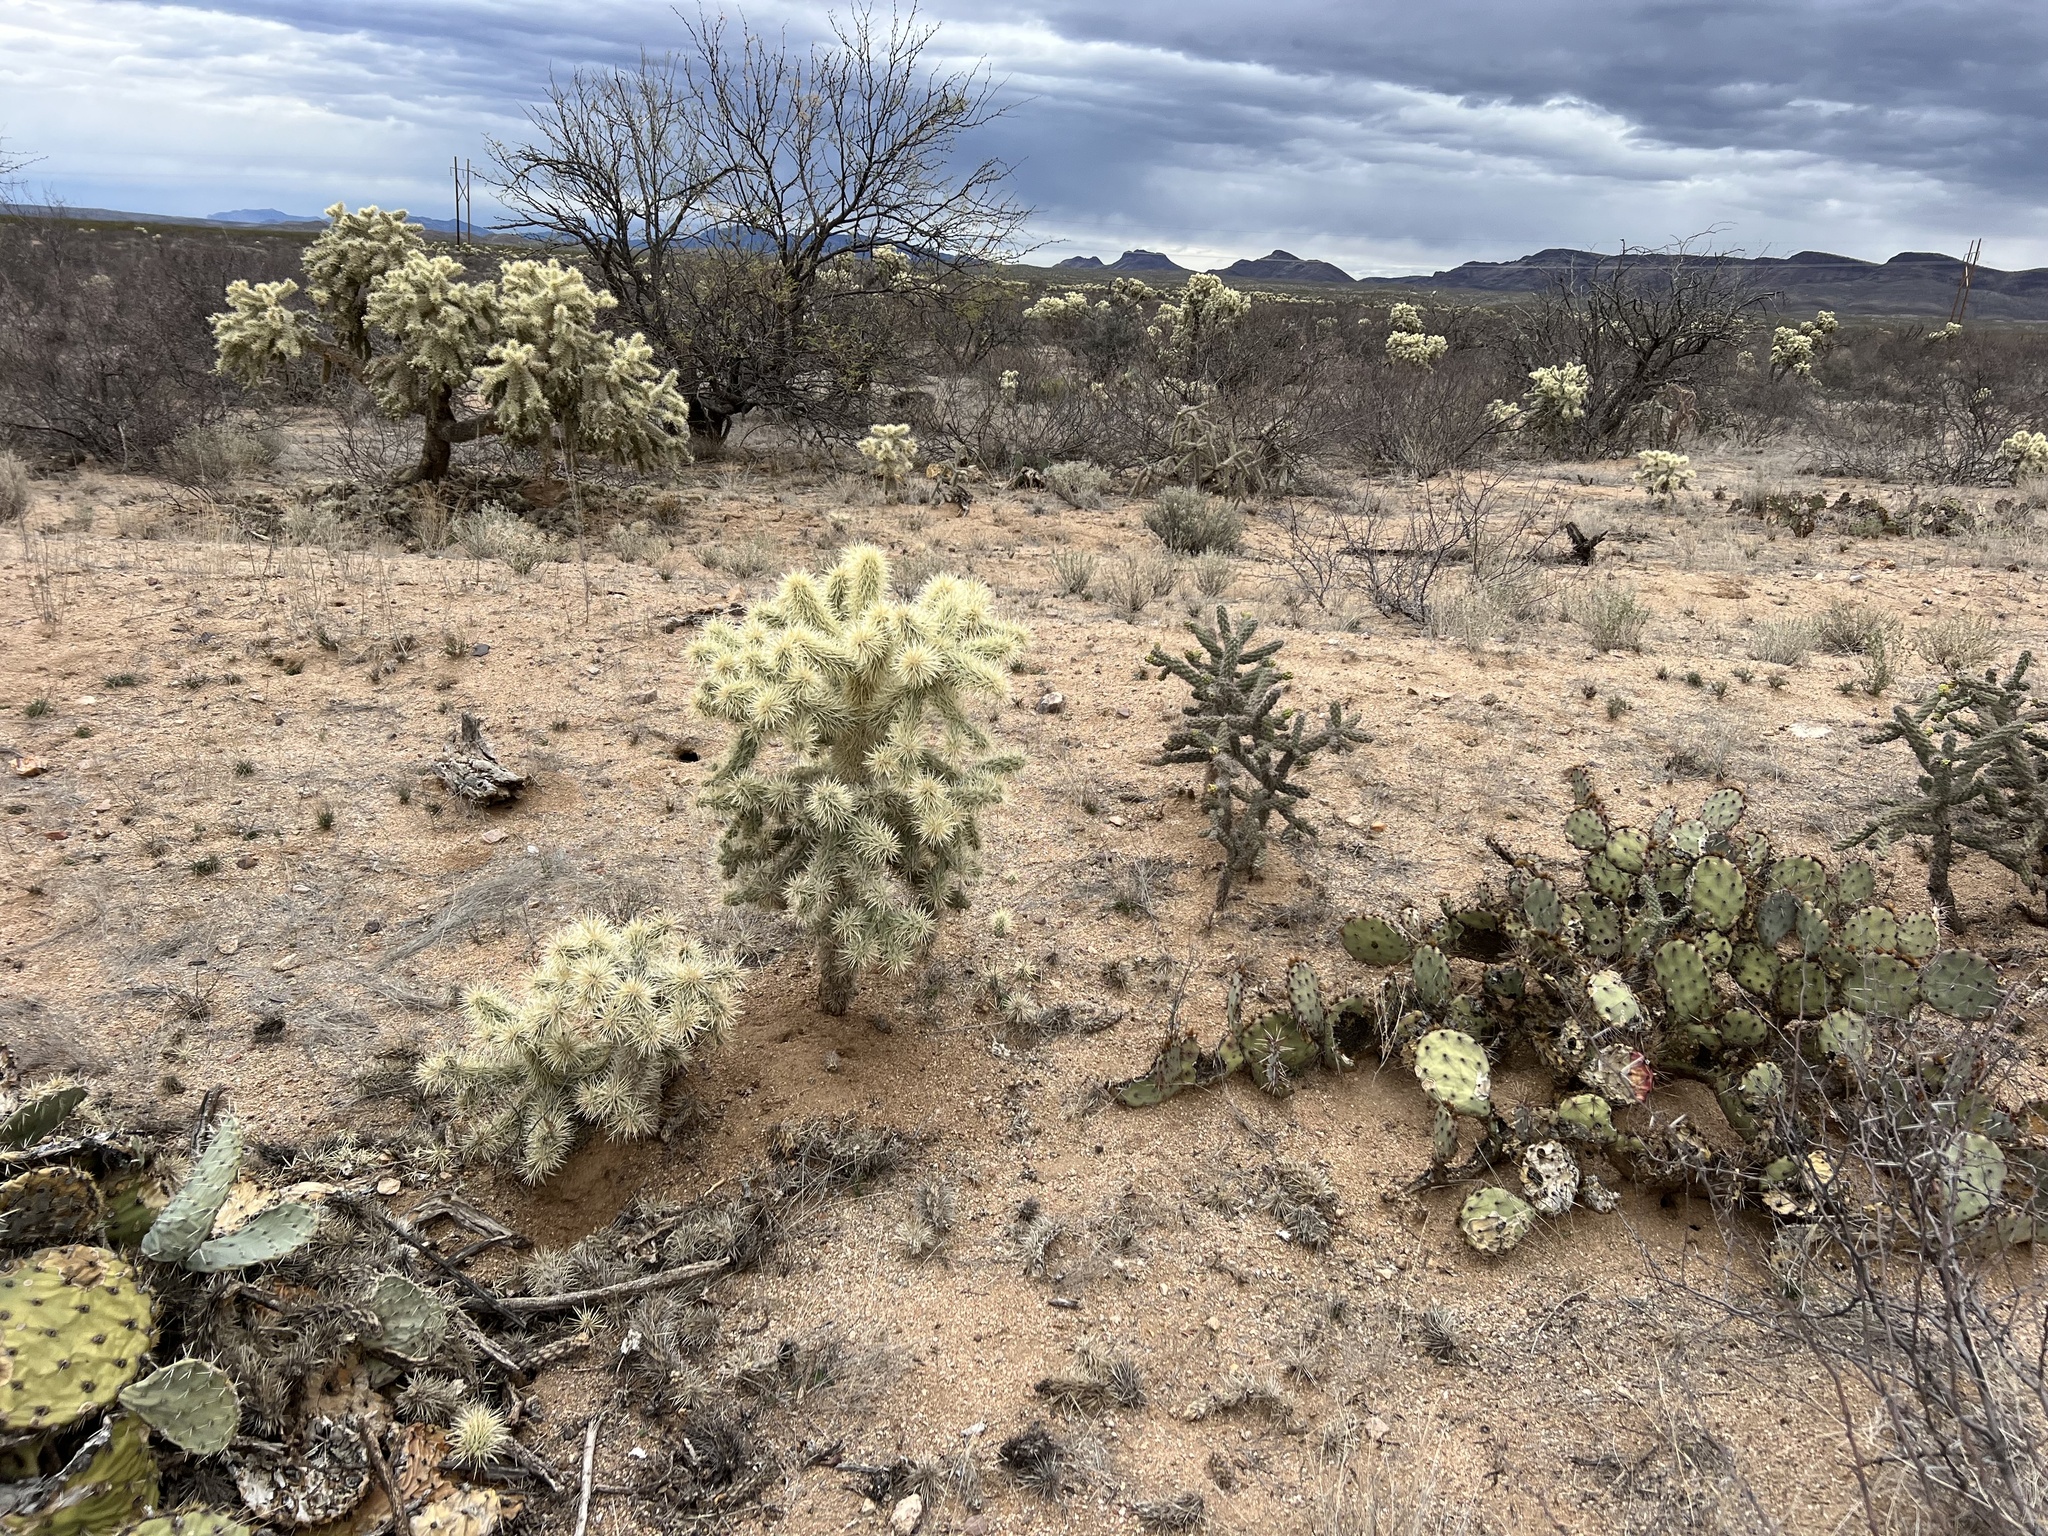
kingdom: Plantae
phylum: Tracheophyta
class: Magnoliopsida
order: Caryophyllales
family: Cactaceae
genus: Cylindropuntia
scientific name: Cylindropuntia fulgida
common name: Jumping cholla
